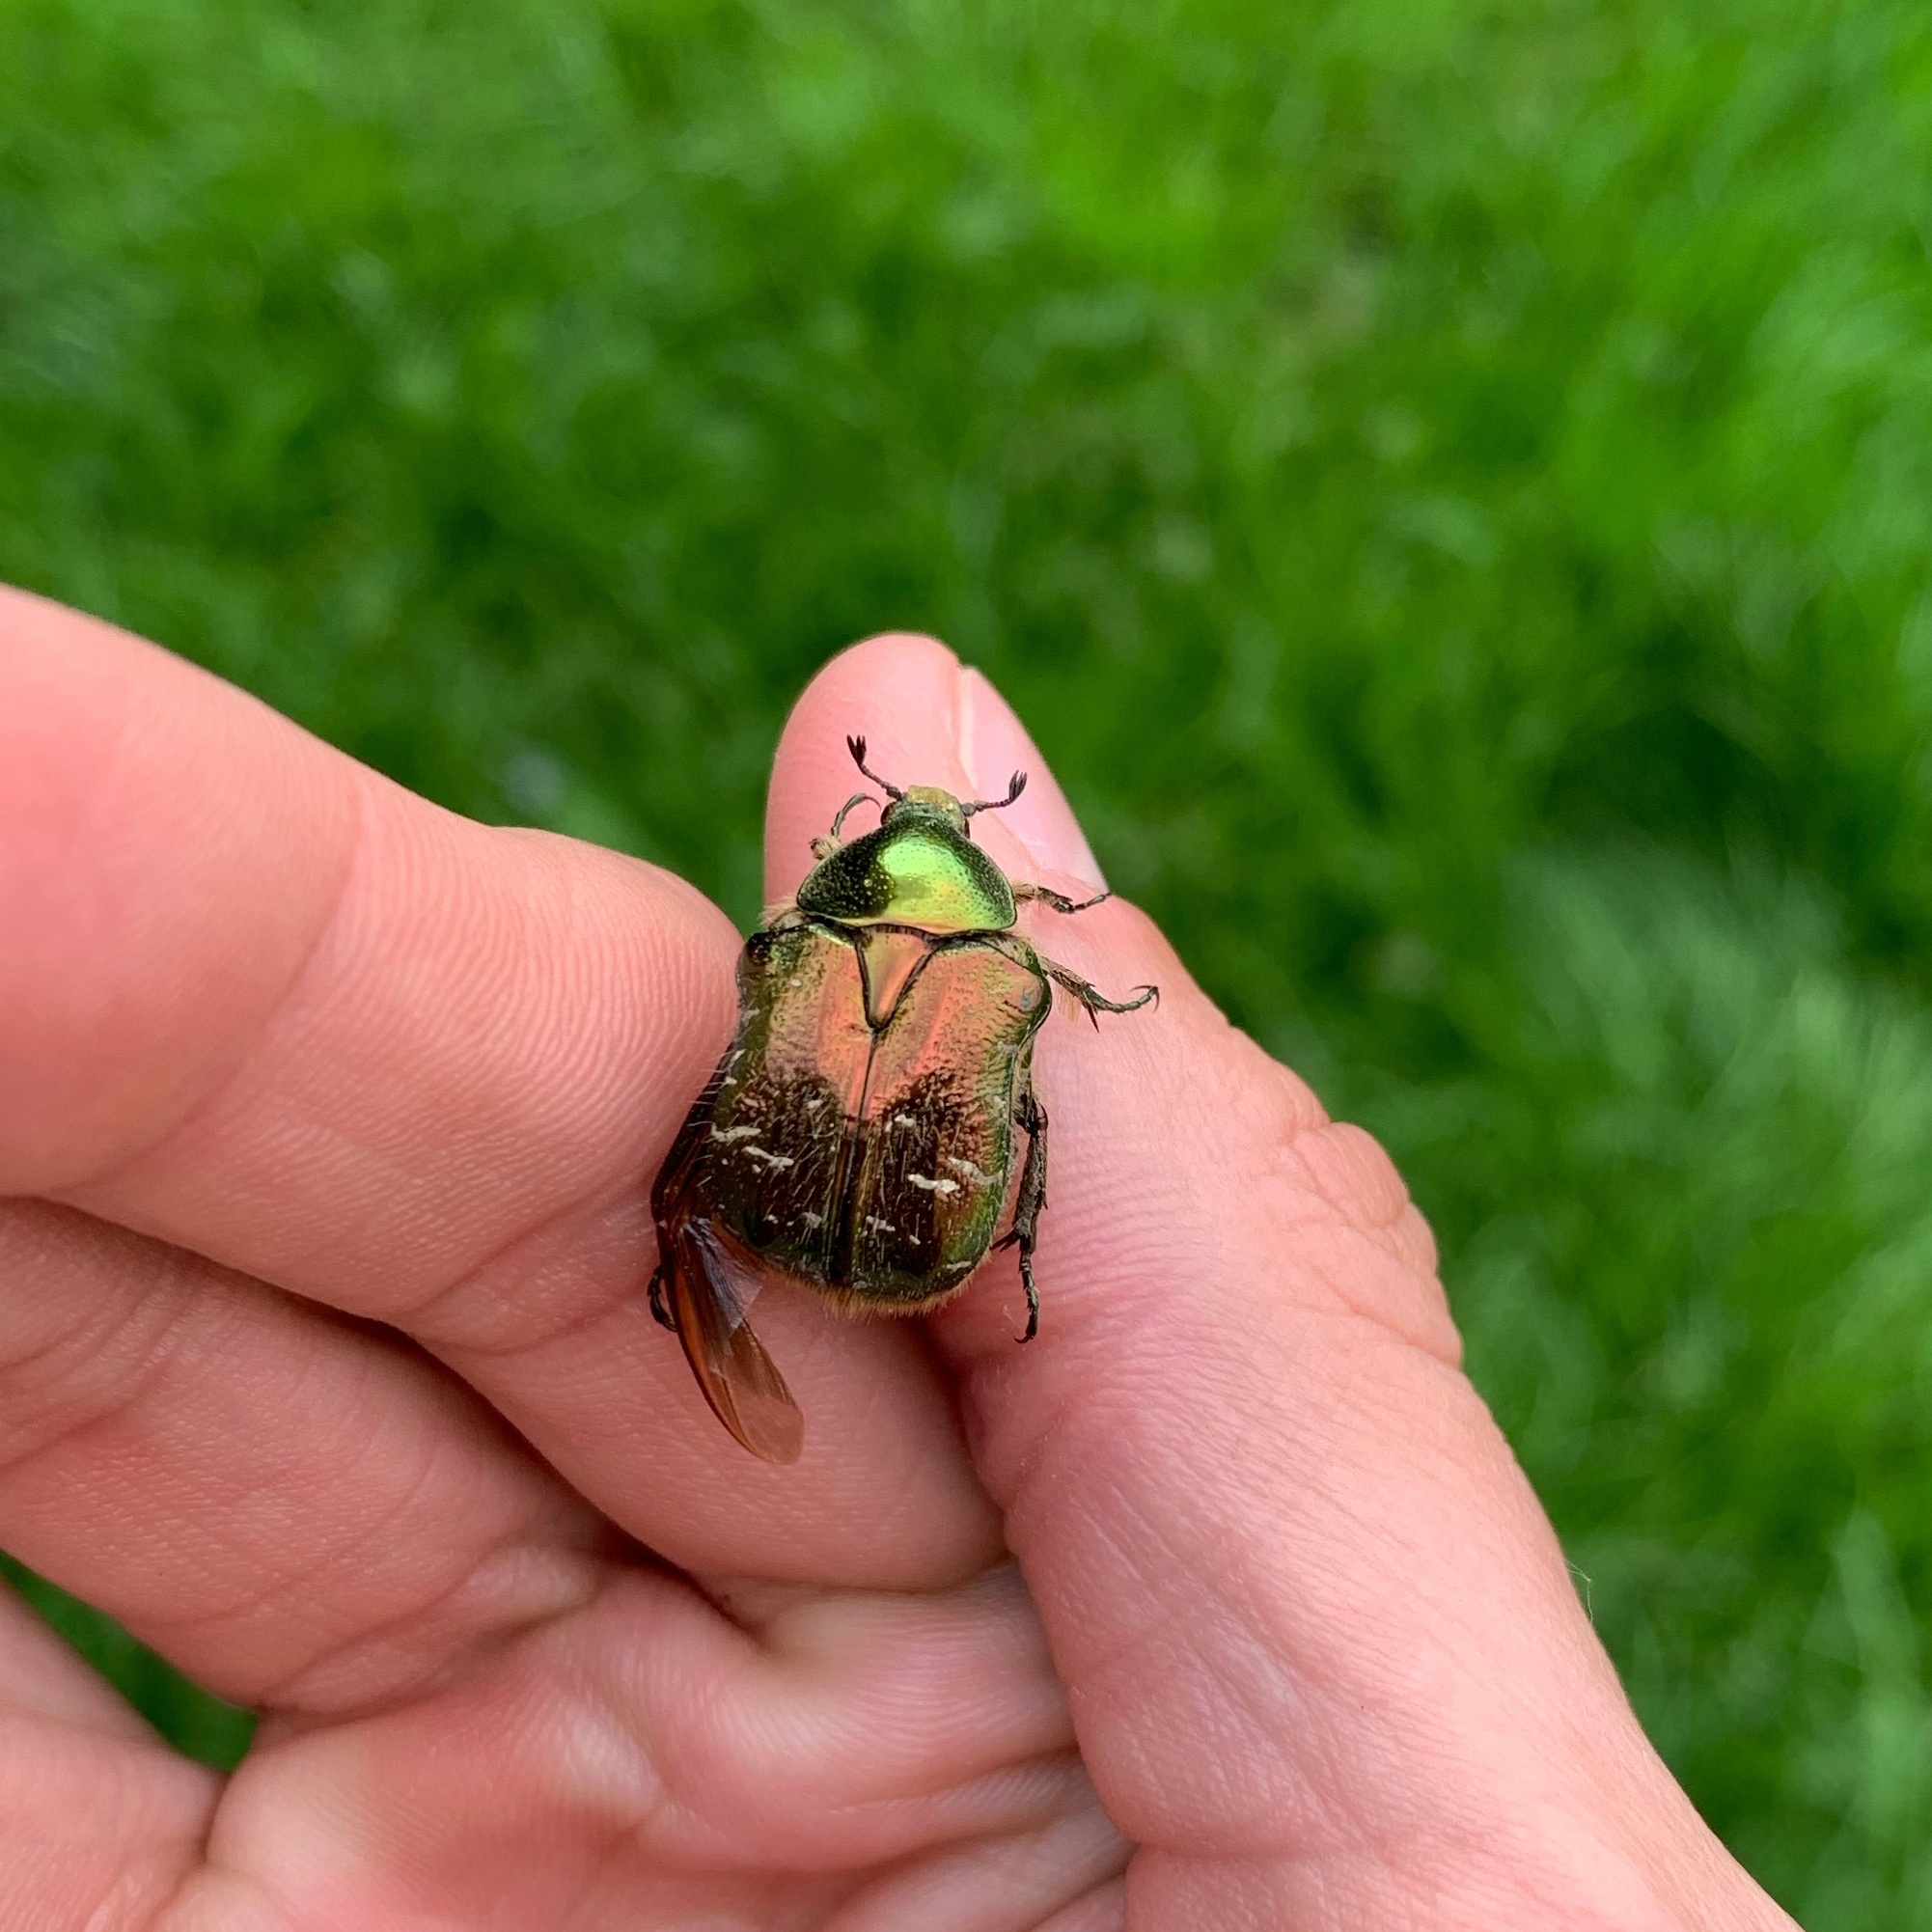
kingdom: Animalia
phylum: Arthropoda
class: Insecta
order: Coleoptera
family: Scarabaeidae
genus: Cetonia
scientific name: Cetonia aurata
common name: Rose chafer
